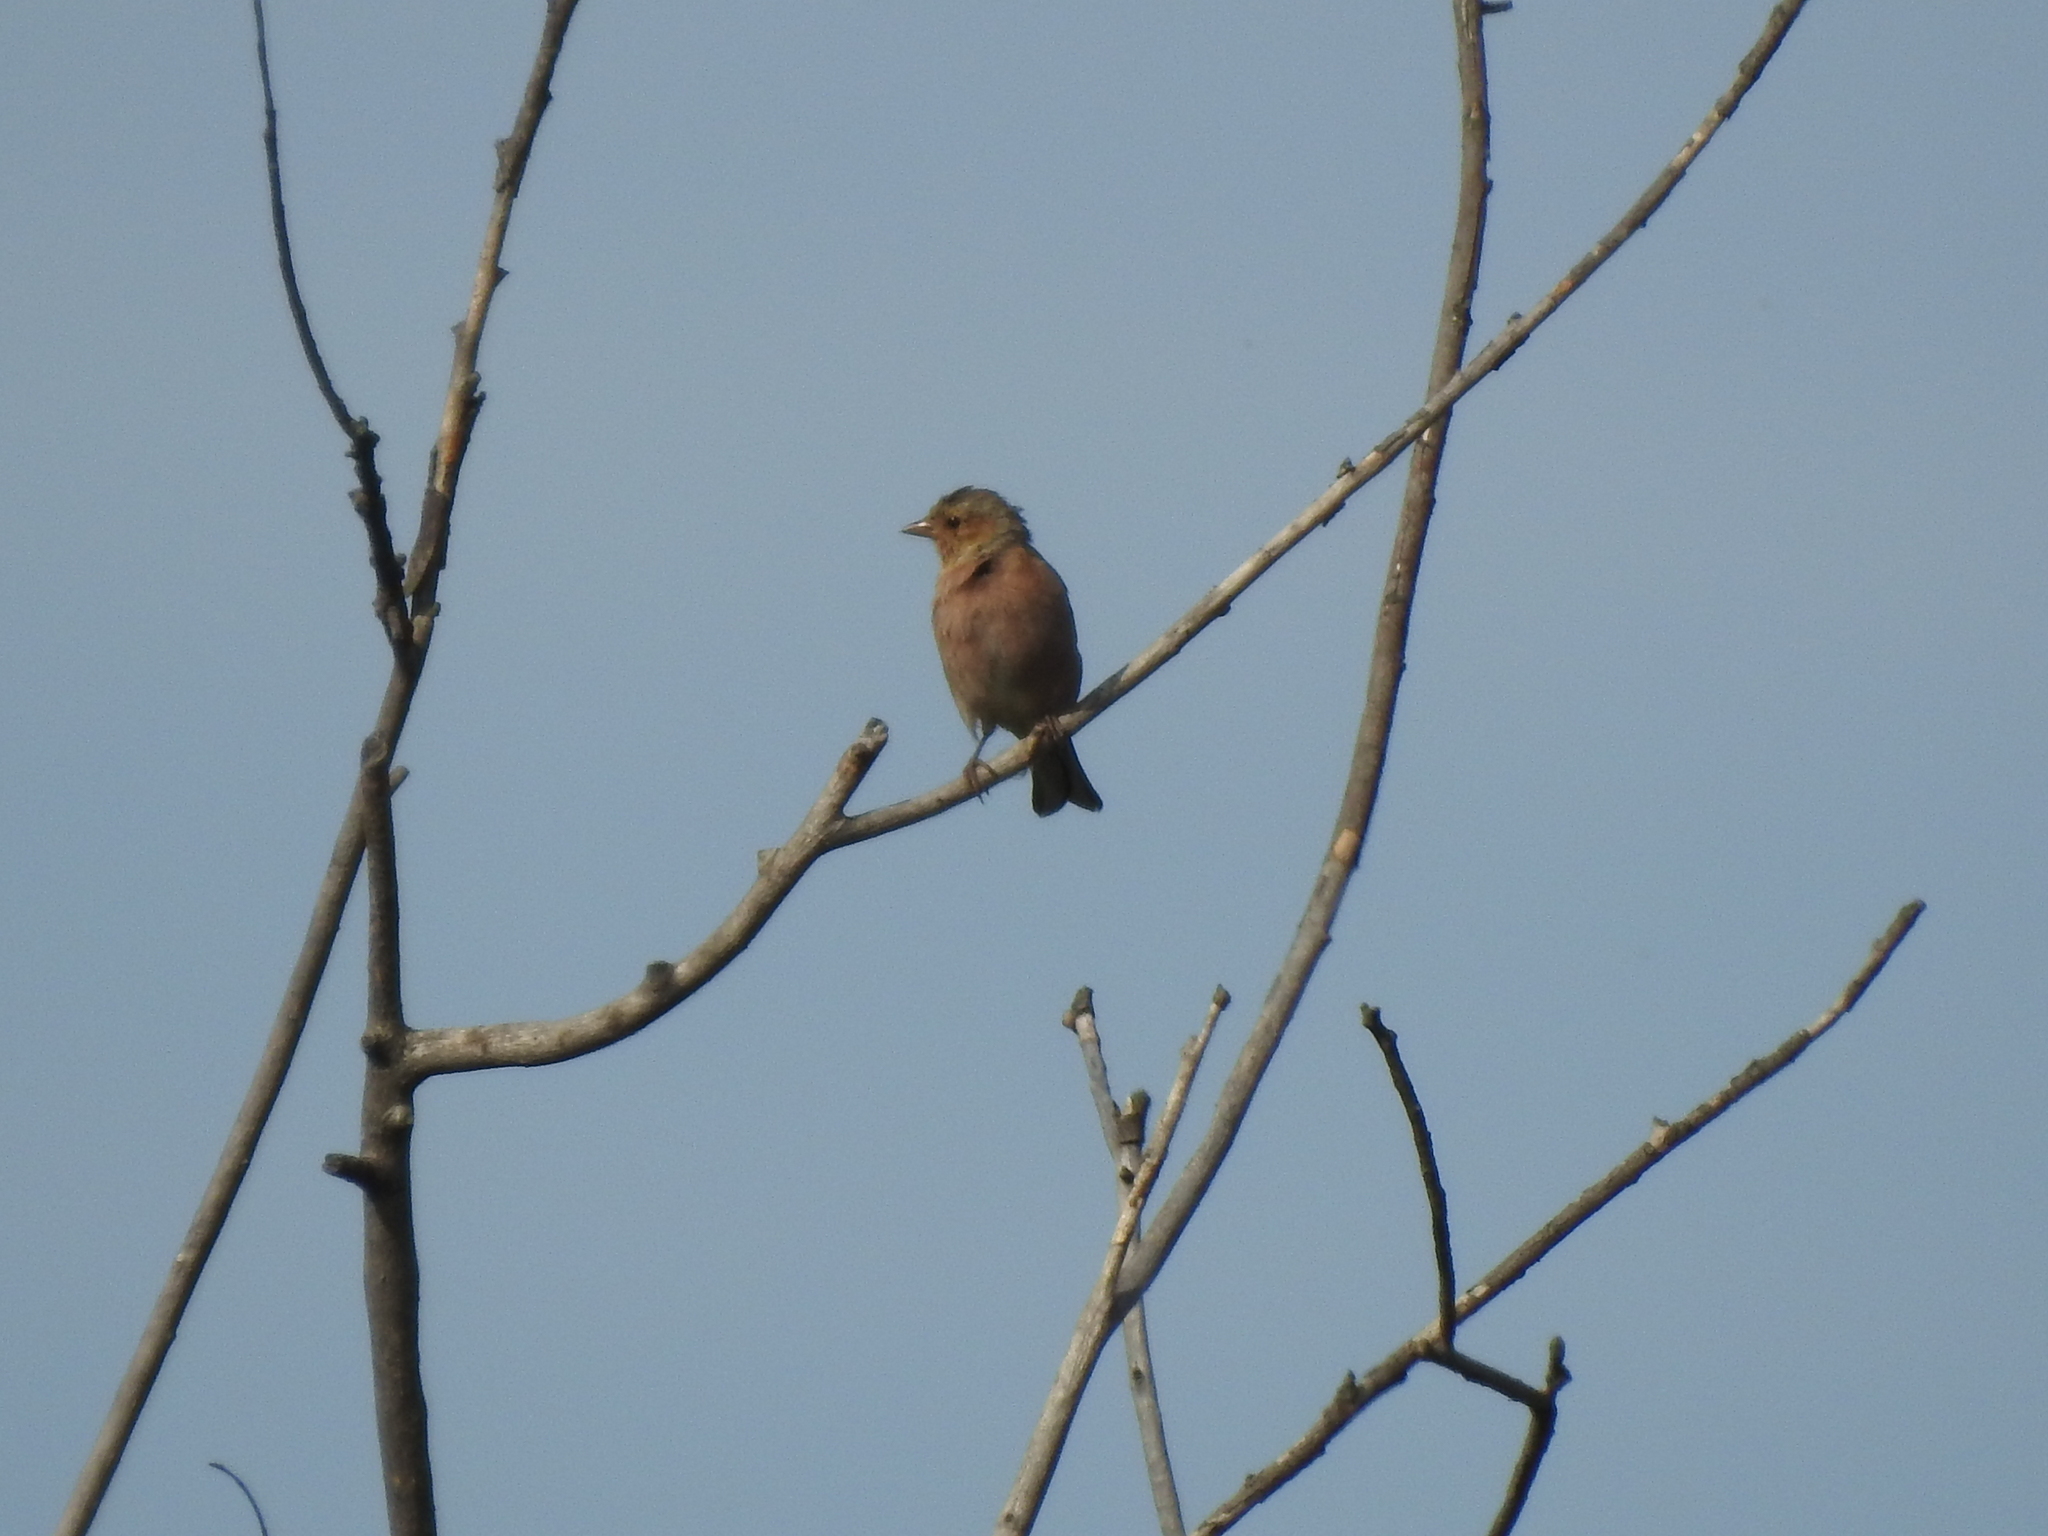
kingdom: Animalia
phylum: Chordata
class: Aves
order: Passeriformes
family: Fringillidae
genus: Fringilla
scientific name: Fringilla coelebs
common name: Common chaffinch
